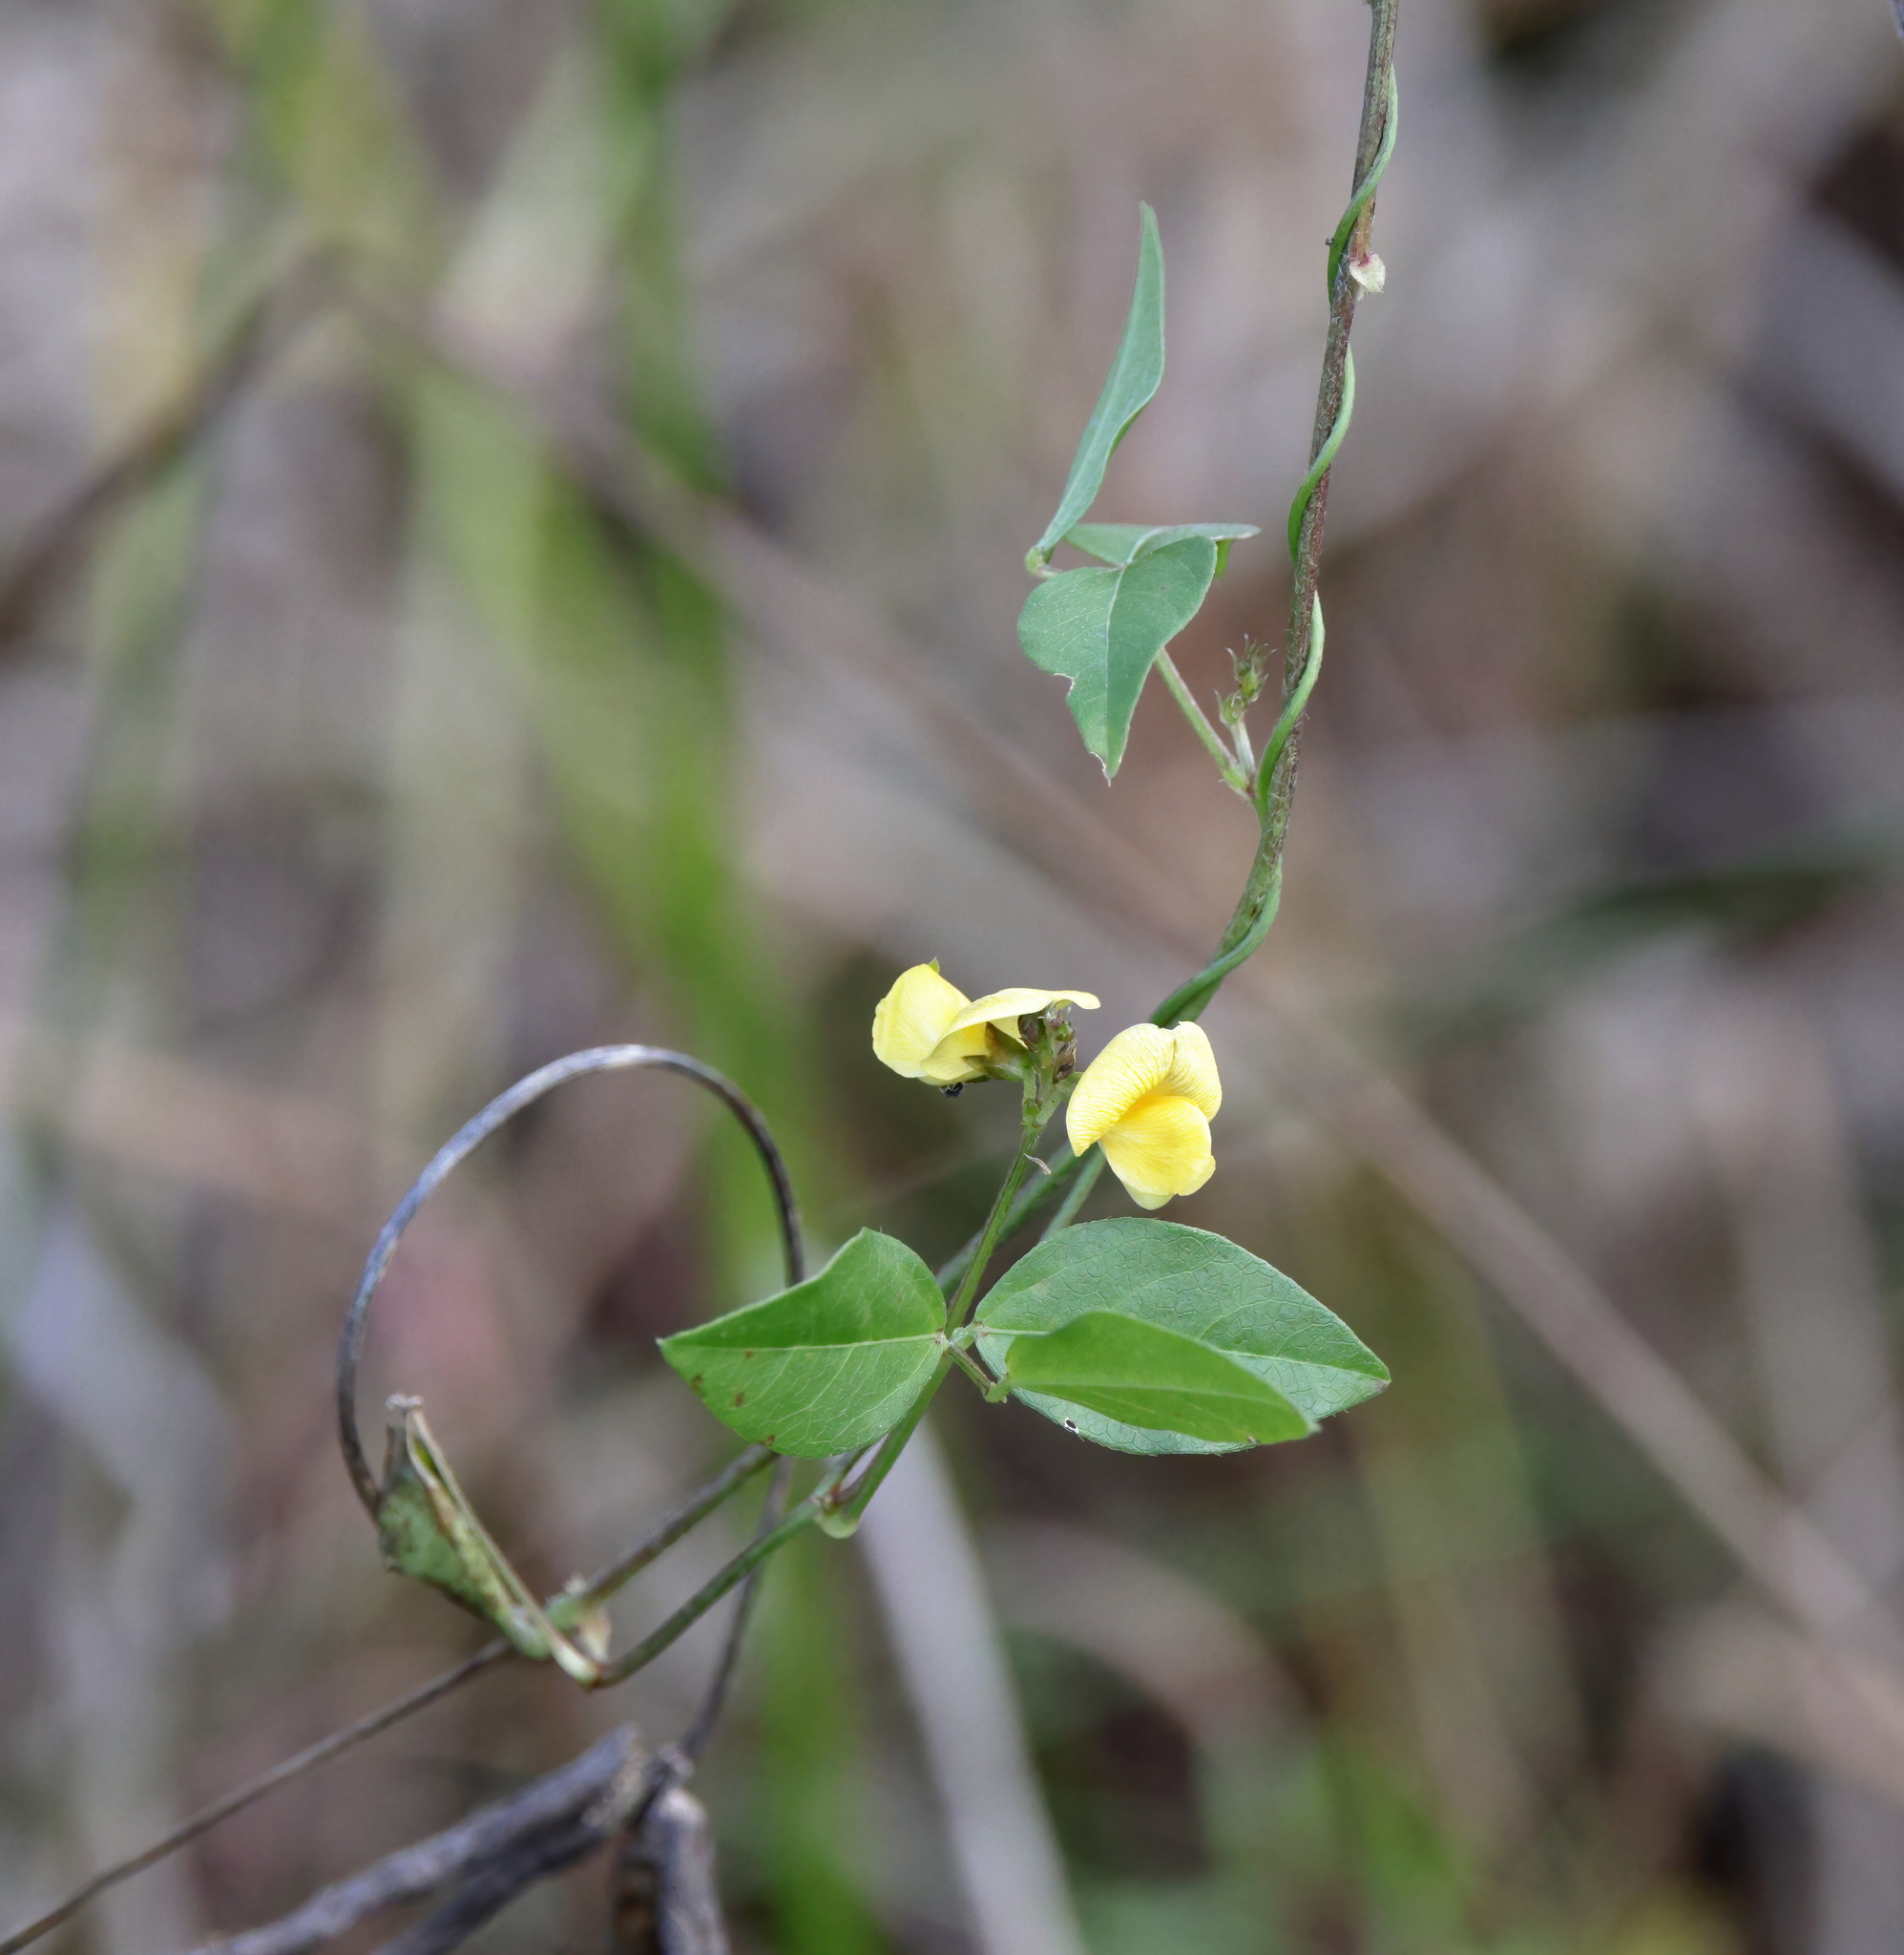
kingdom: Plantae
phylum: Tracheophyta
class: Magnoliopsida
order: Fabales
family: Fabaceae
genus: Vigna
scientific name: Vigna luteola
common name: Hairypod cowpea
